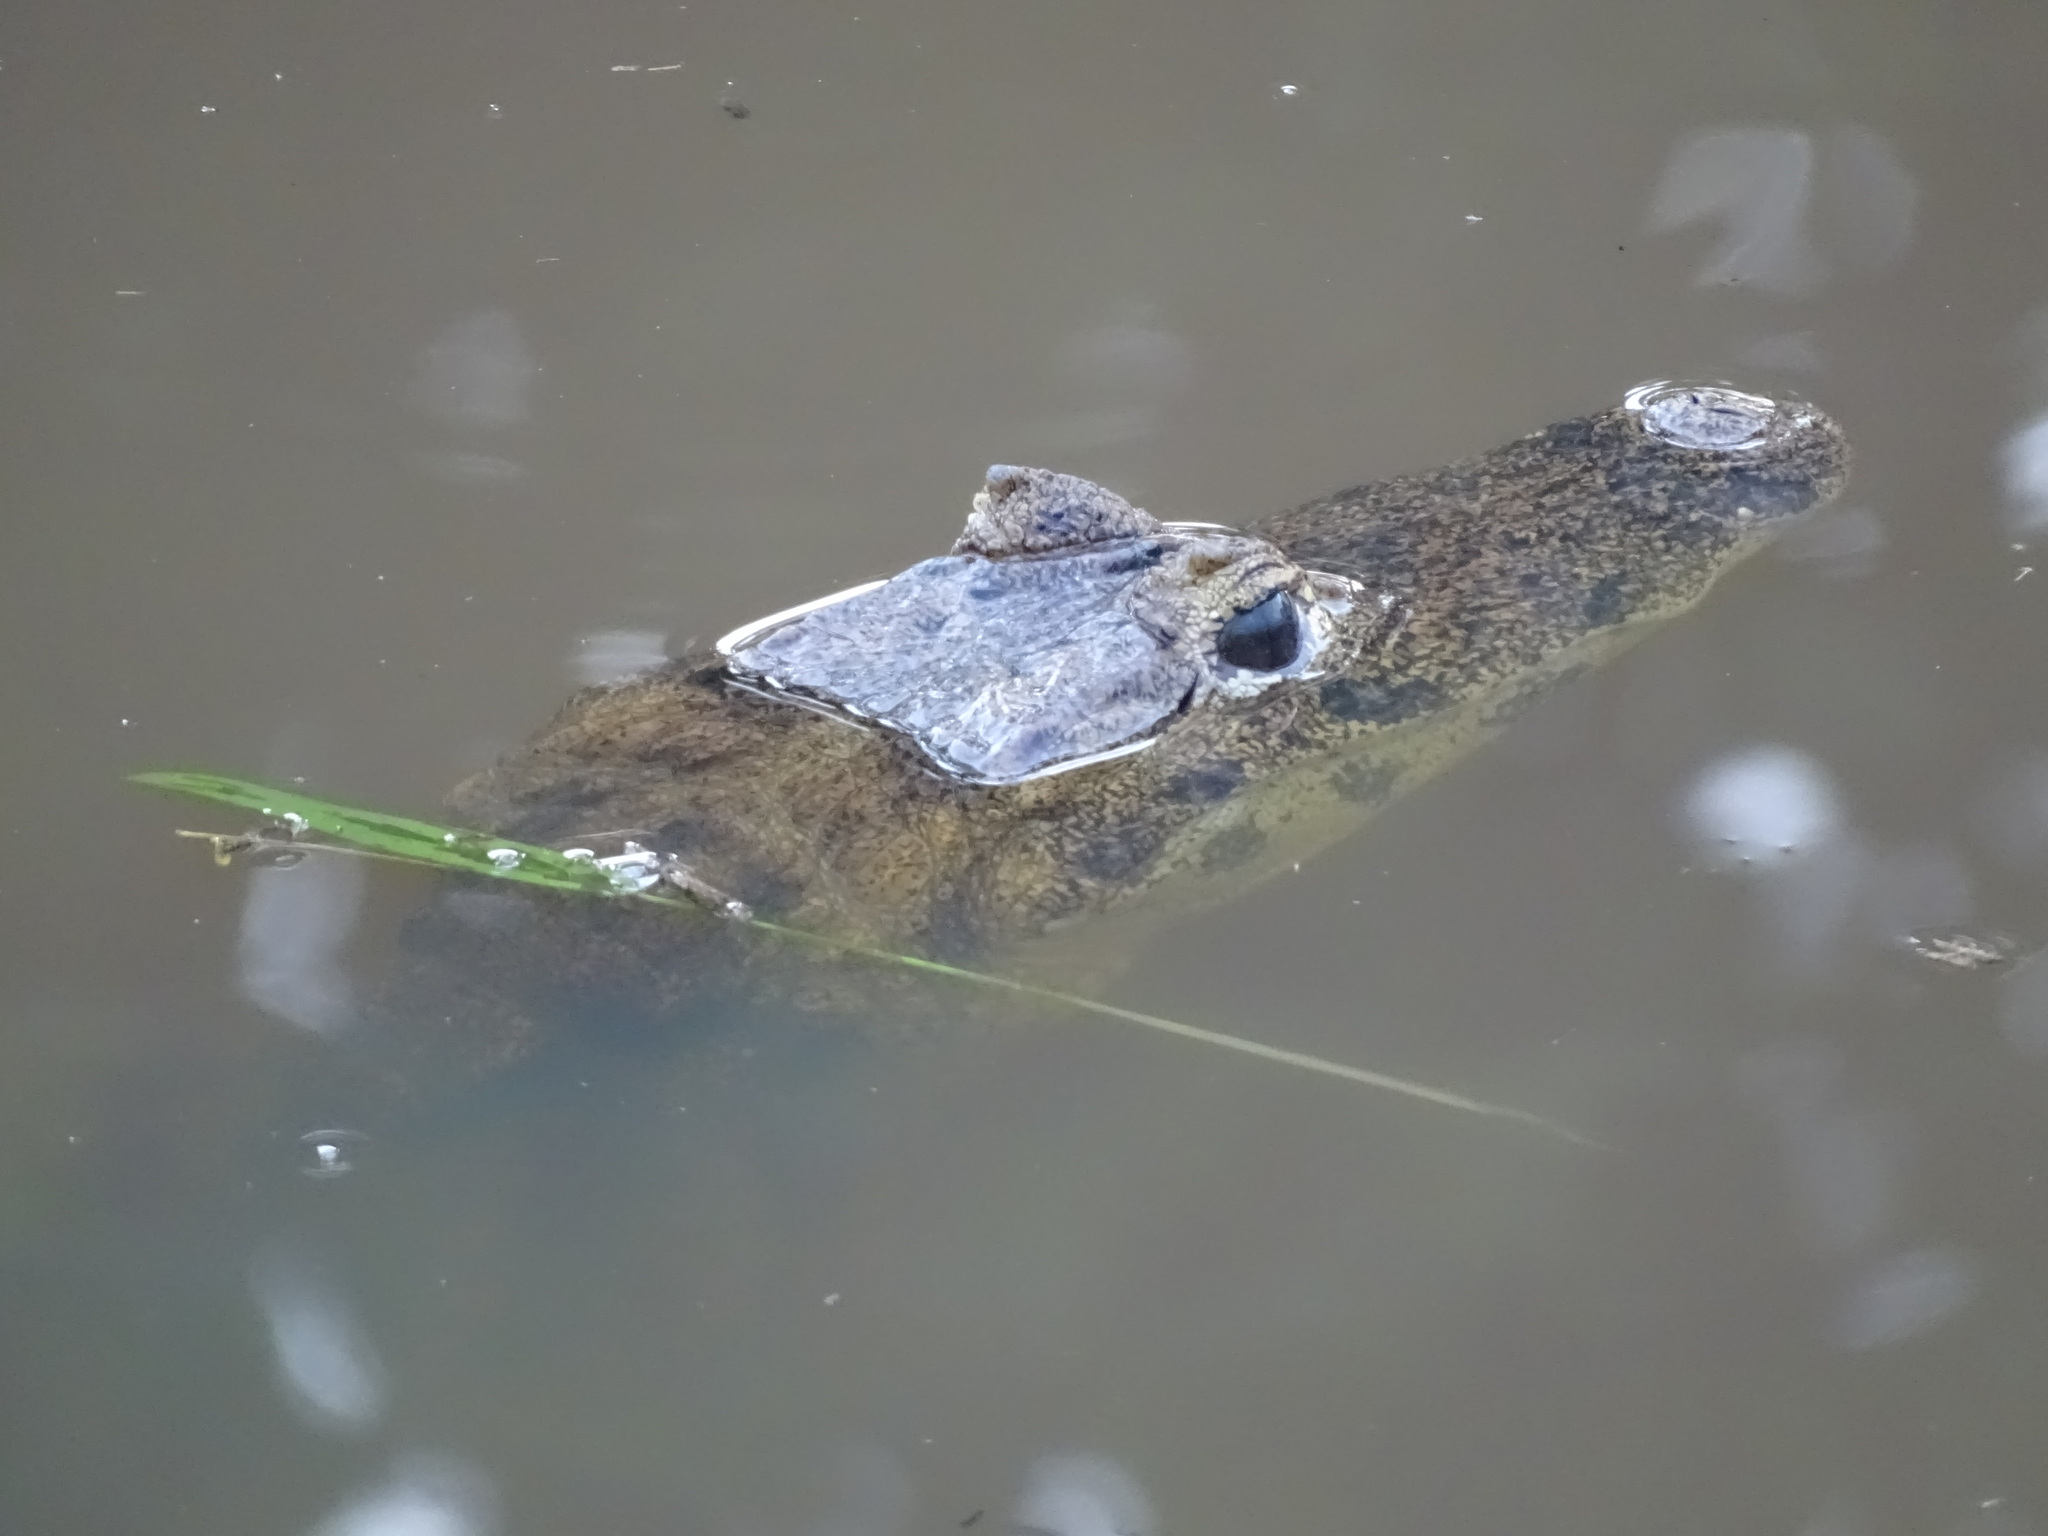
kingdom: Animalia
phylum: Chordata
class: Crocodylia
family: Alligatoridae
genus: Caiman
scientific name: Caiman crocodilus
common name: Common caiman
